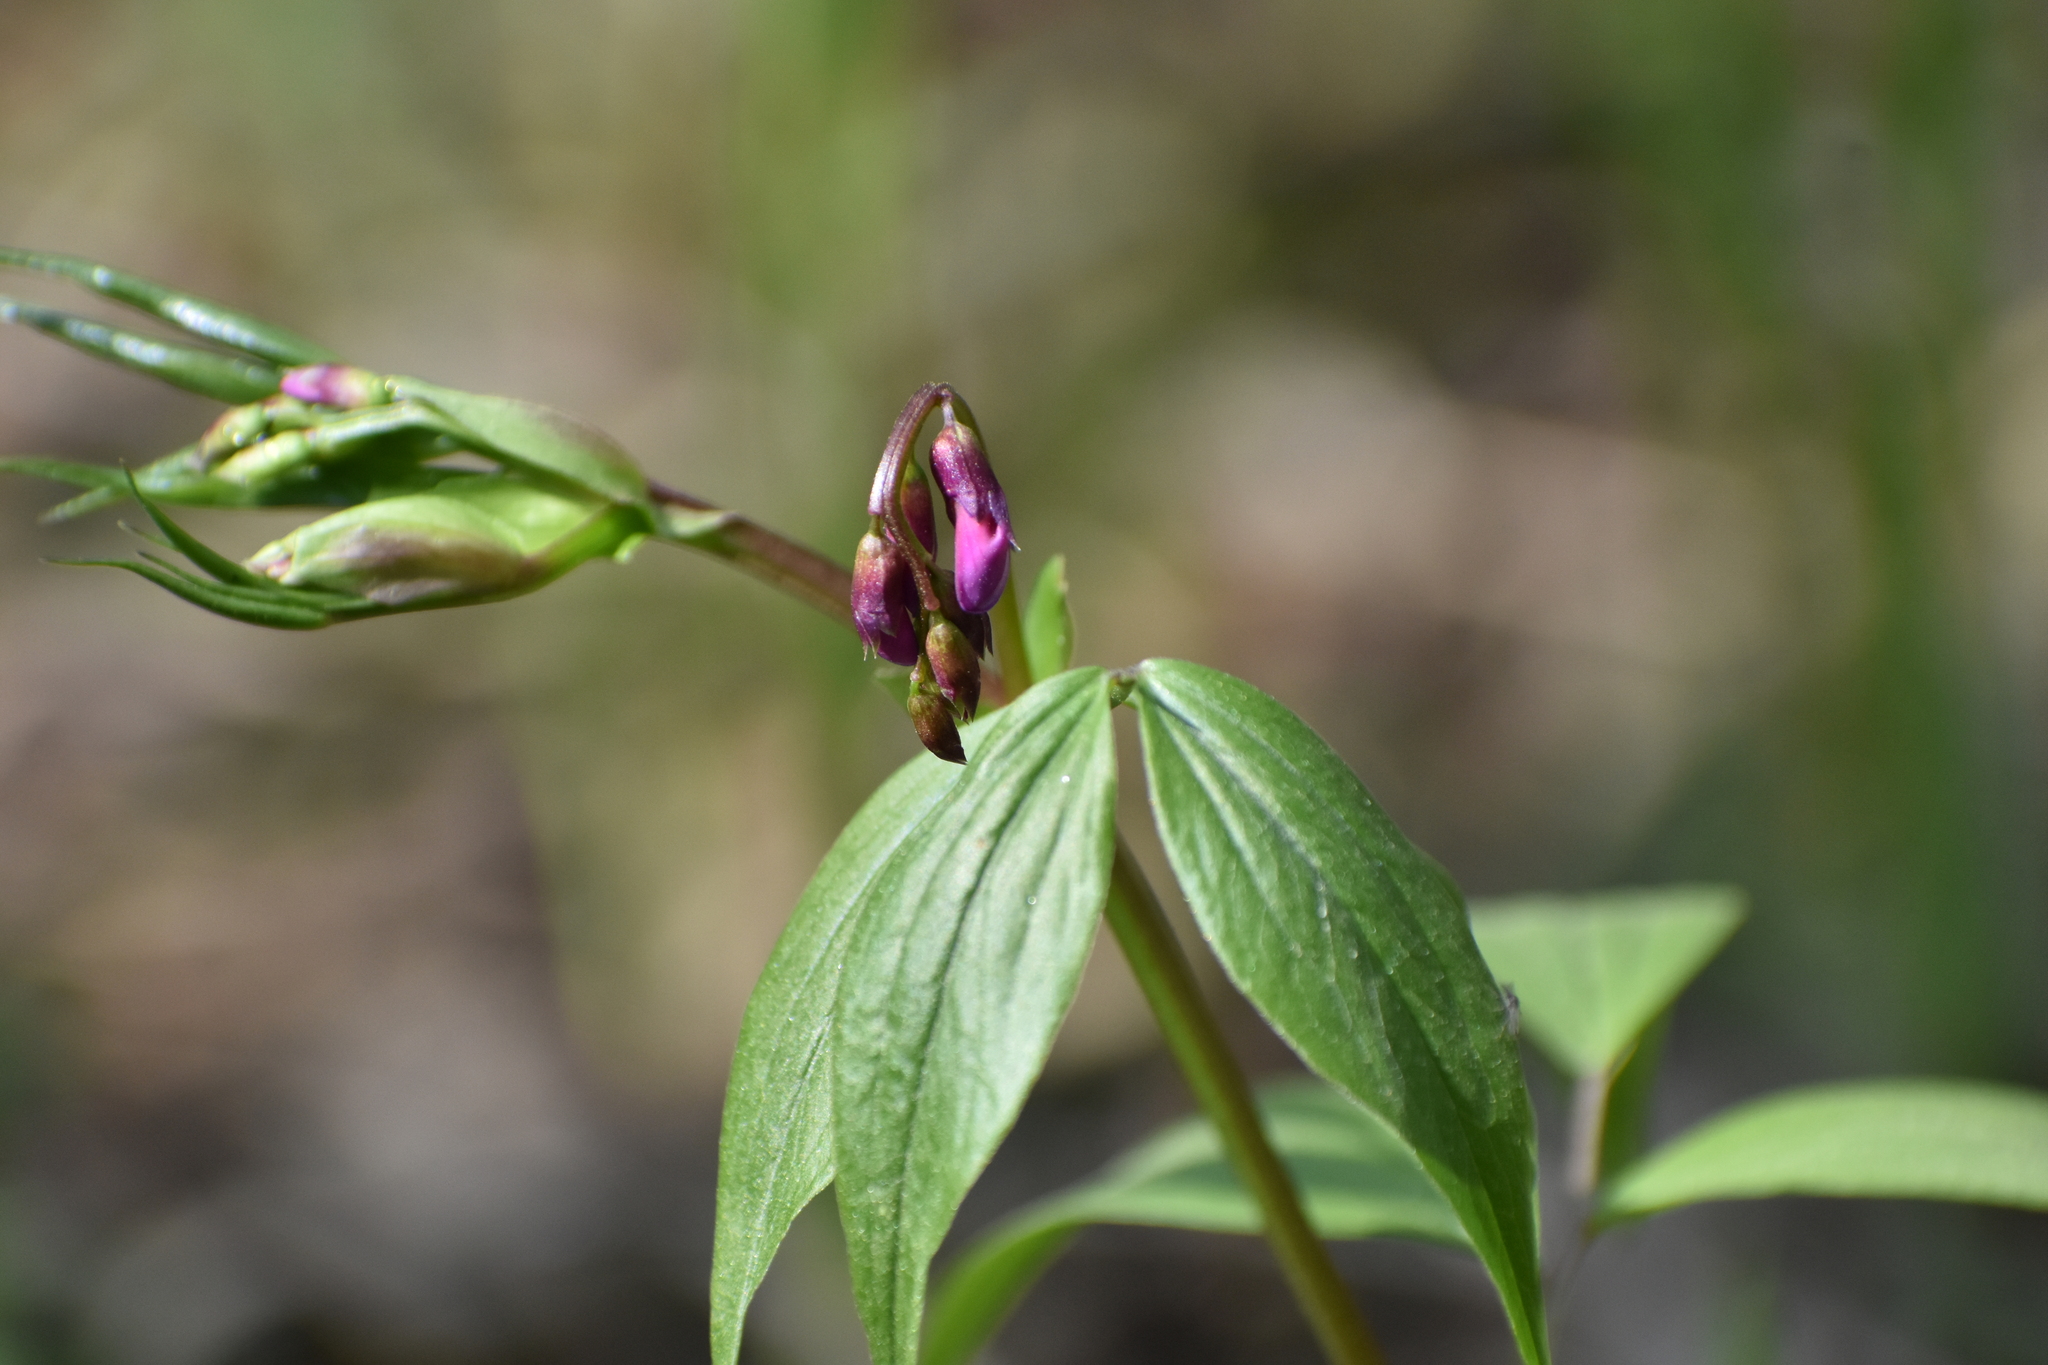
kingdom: Plantae
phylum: Tracheophyta
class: Magnoliopsida
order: Fabales
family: Fabaceae
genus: Lathyrus
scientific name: Lathyrus vernus
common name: Spring pea
